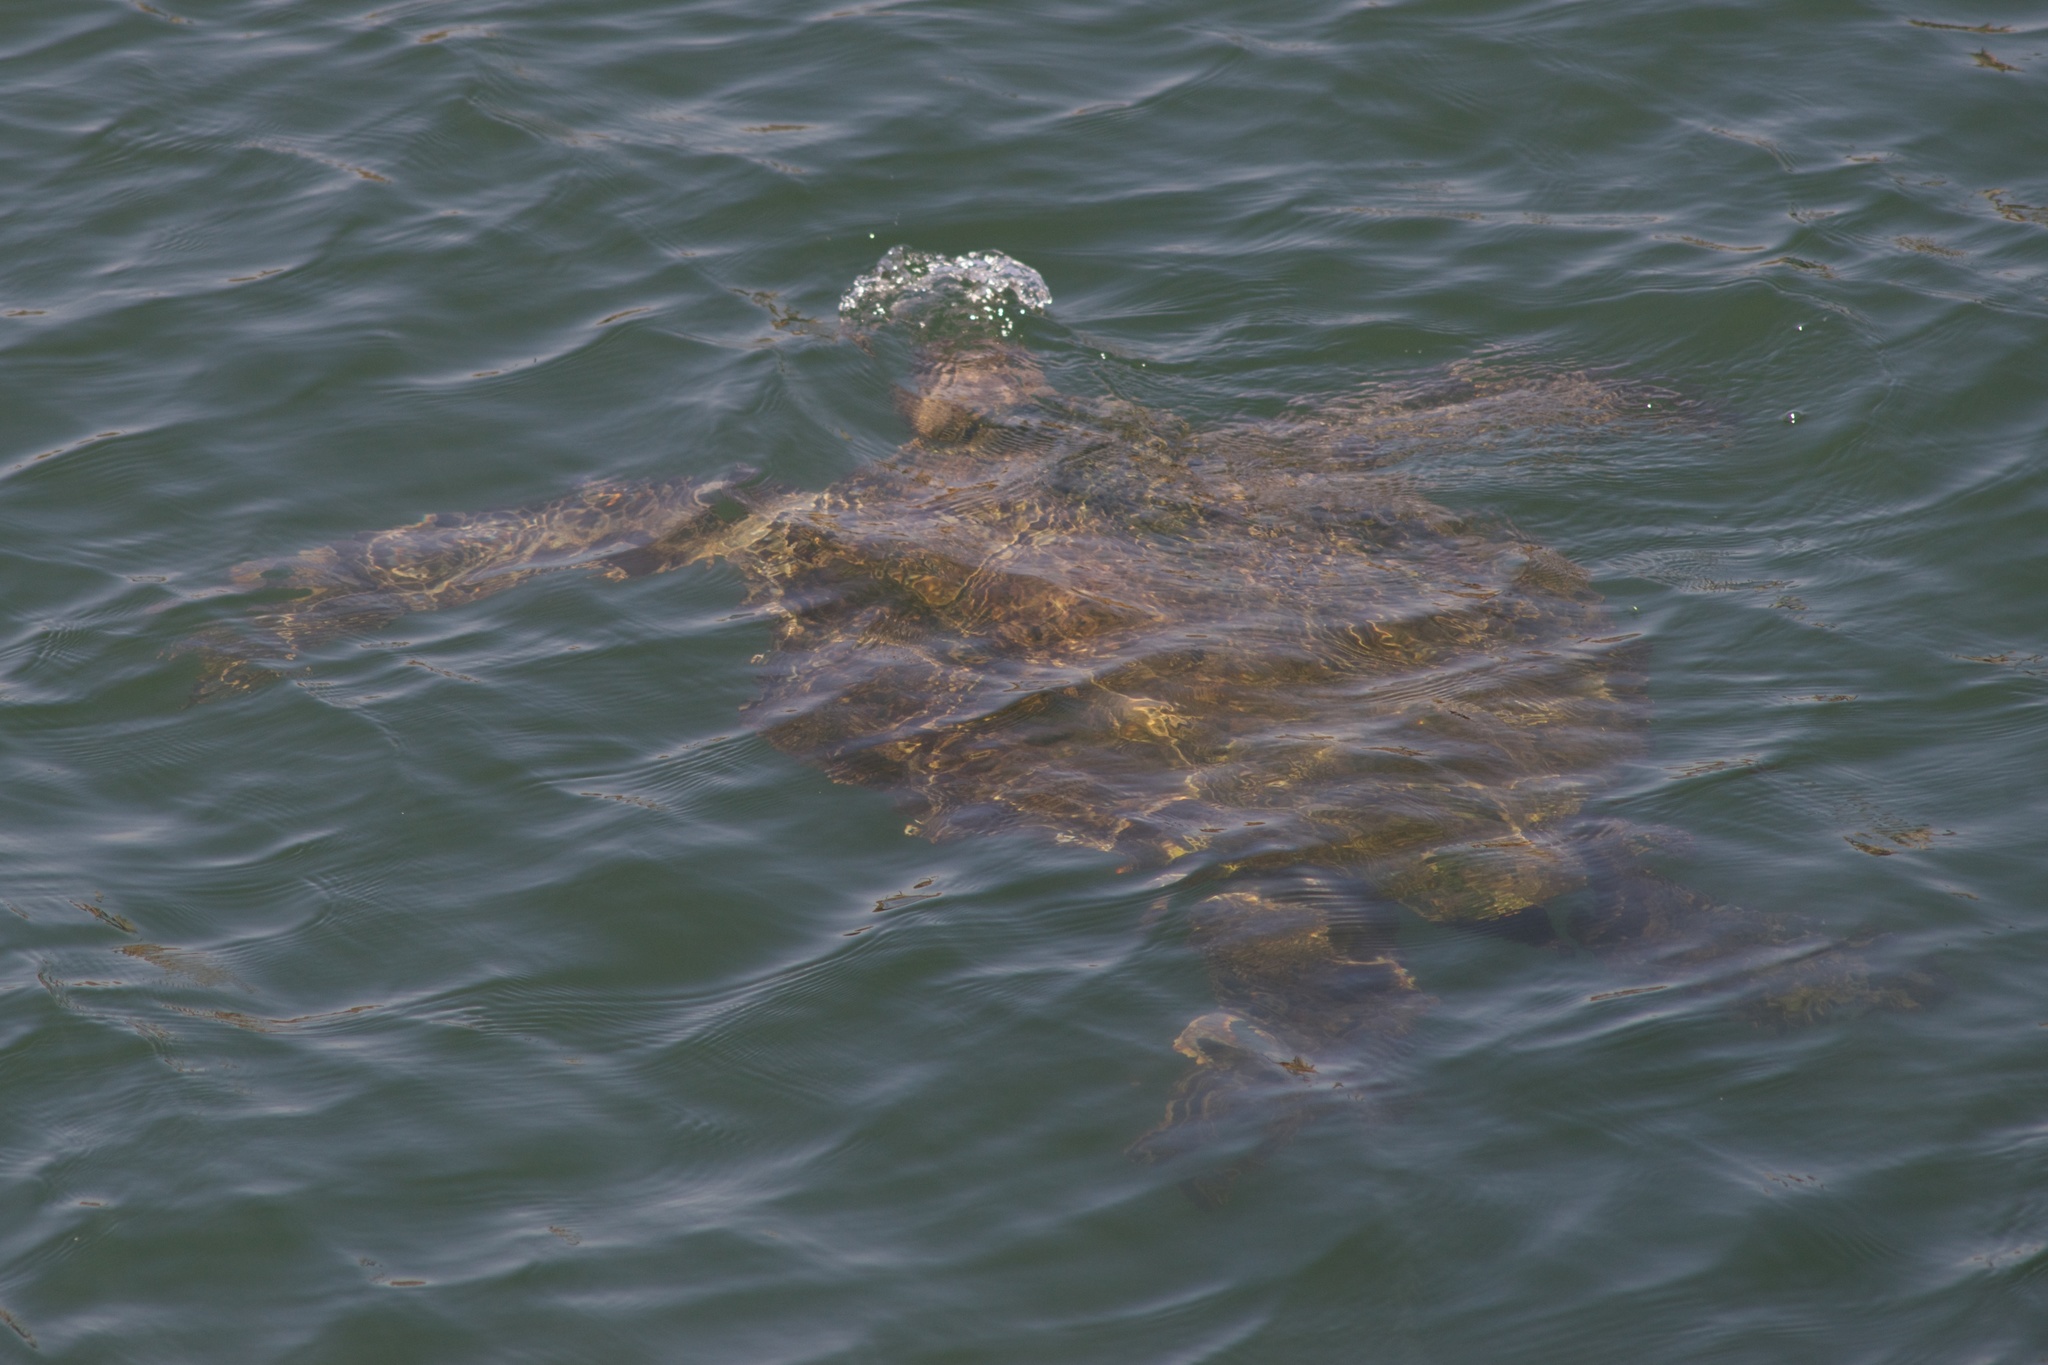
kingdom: Animalia
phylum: Chordata
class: Testudines
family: Cheloniidae
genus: Chelonia
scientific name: Chelonia mydas
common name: Green turtle
